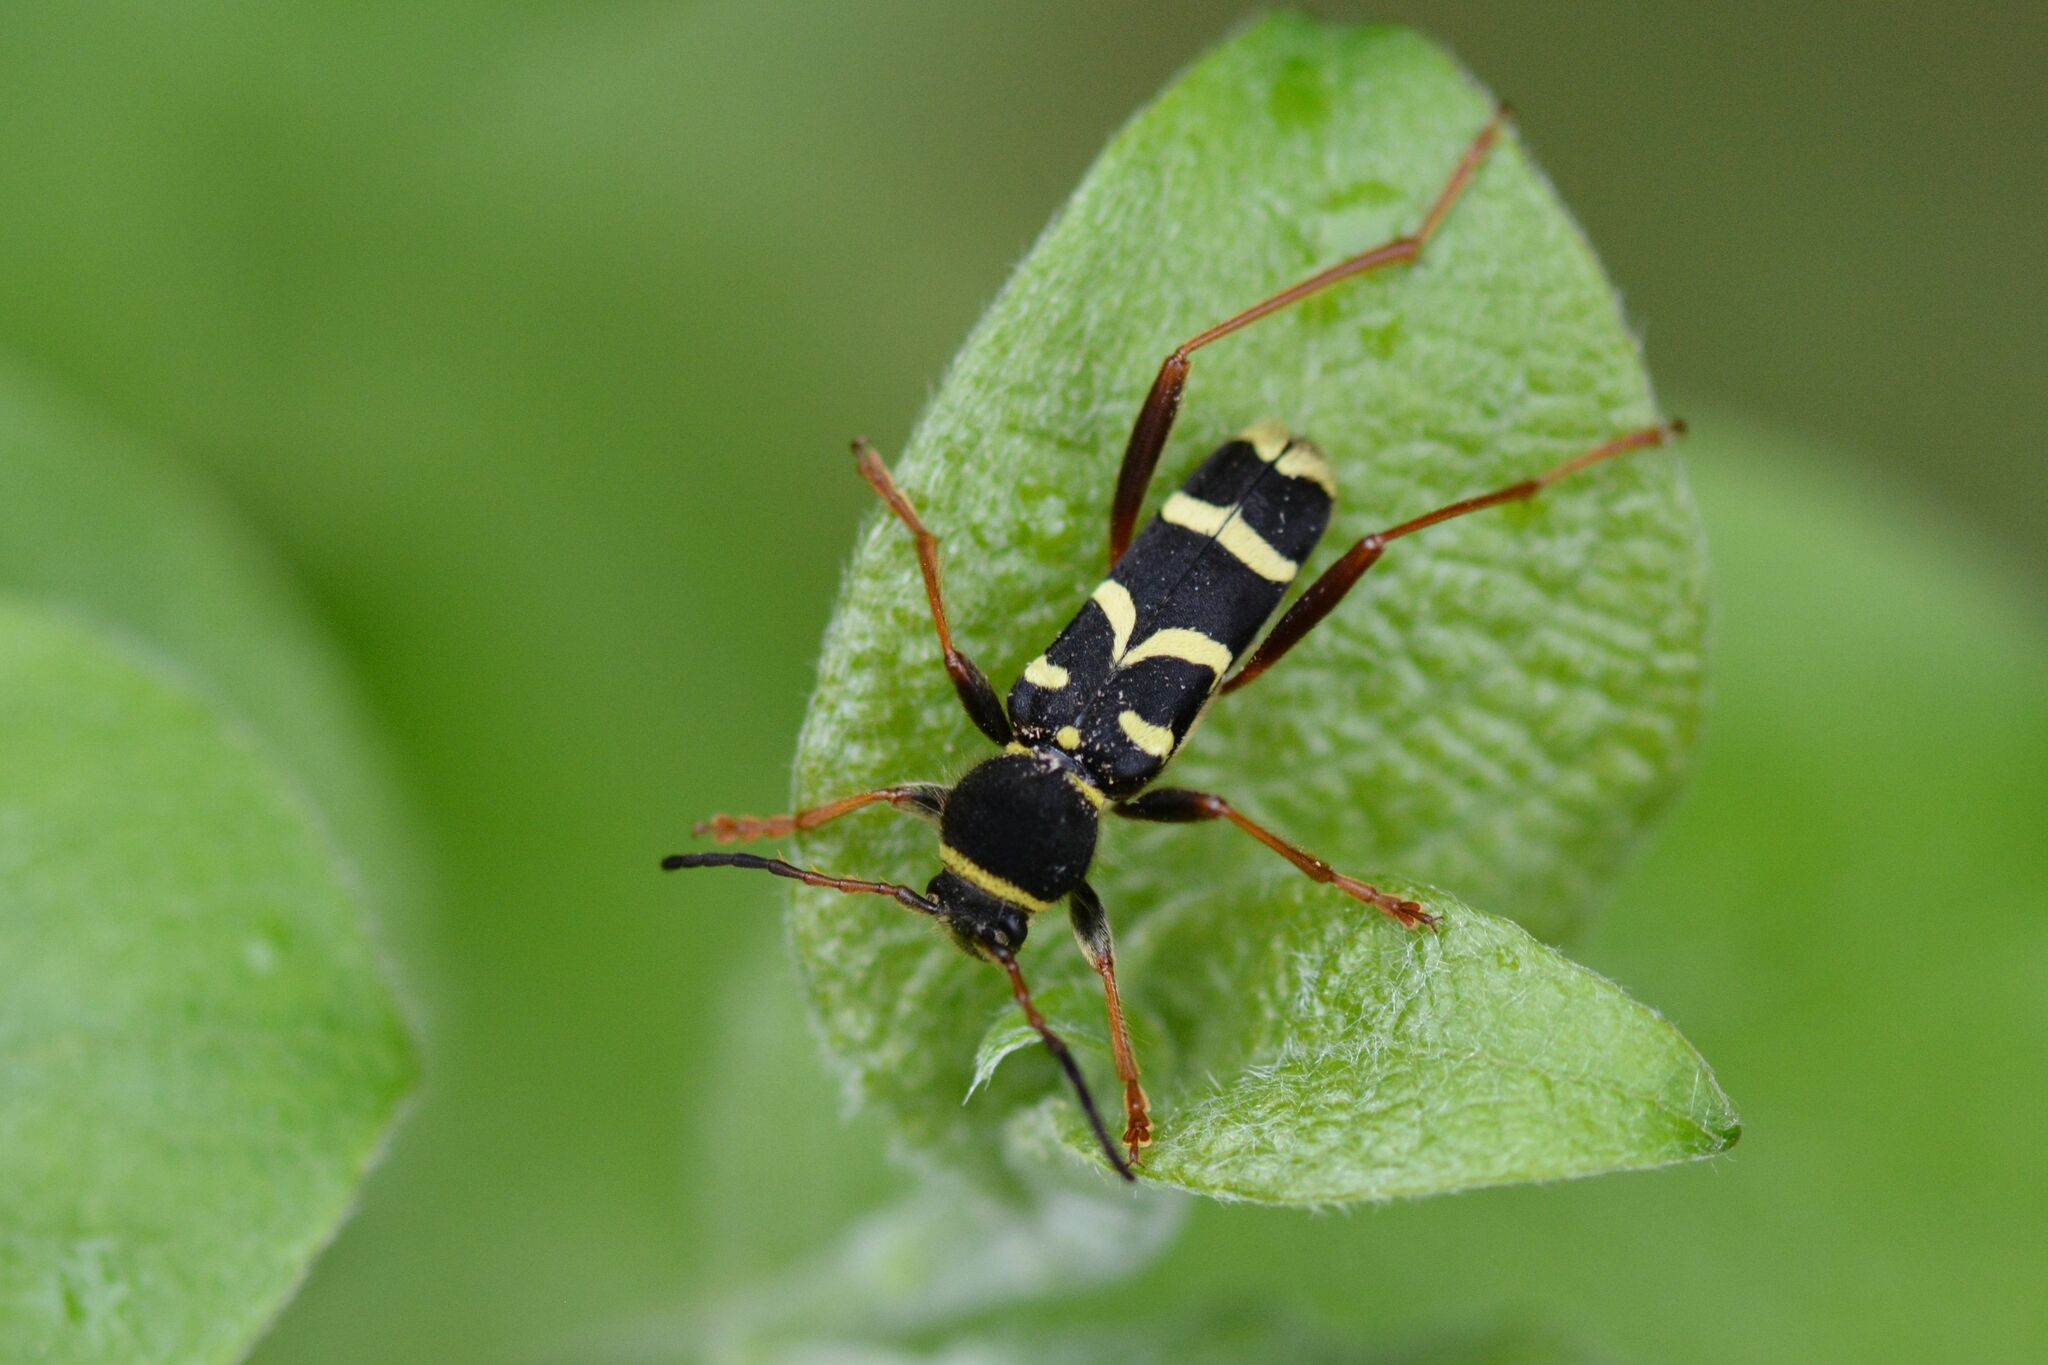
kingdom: Animalia
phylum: Arthropoda
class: Insecta
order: Coleoptera
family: Cerambycidae
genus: Clytus
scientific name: Clytus arietis
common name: Wasp beetle
